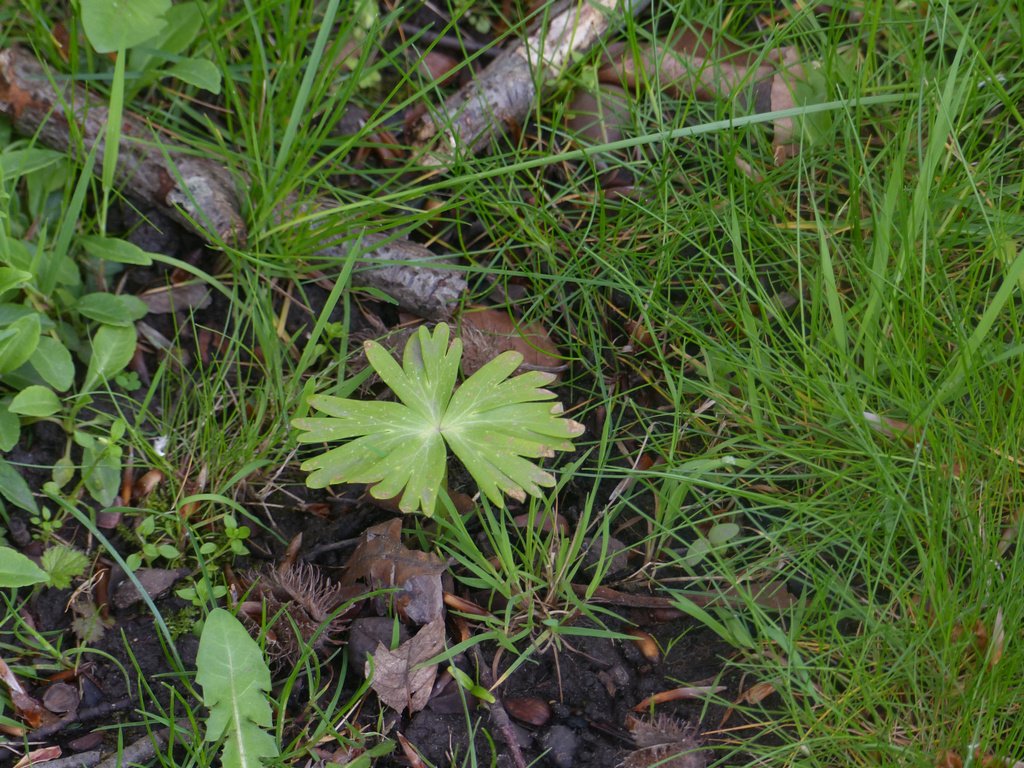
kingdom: Plantae
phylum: Tracheophyta
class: Magnoliopsida
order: Ranunculales
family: Ranunculaceae
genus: Eranthis
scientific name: Eranthis hyemalis
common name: Winter aconite
